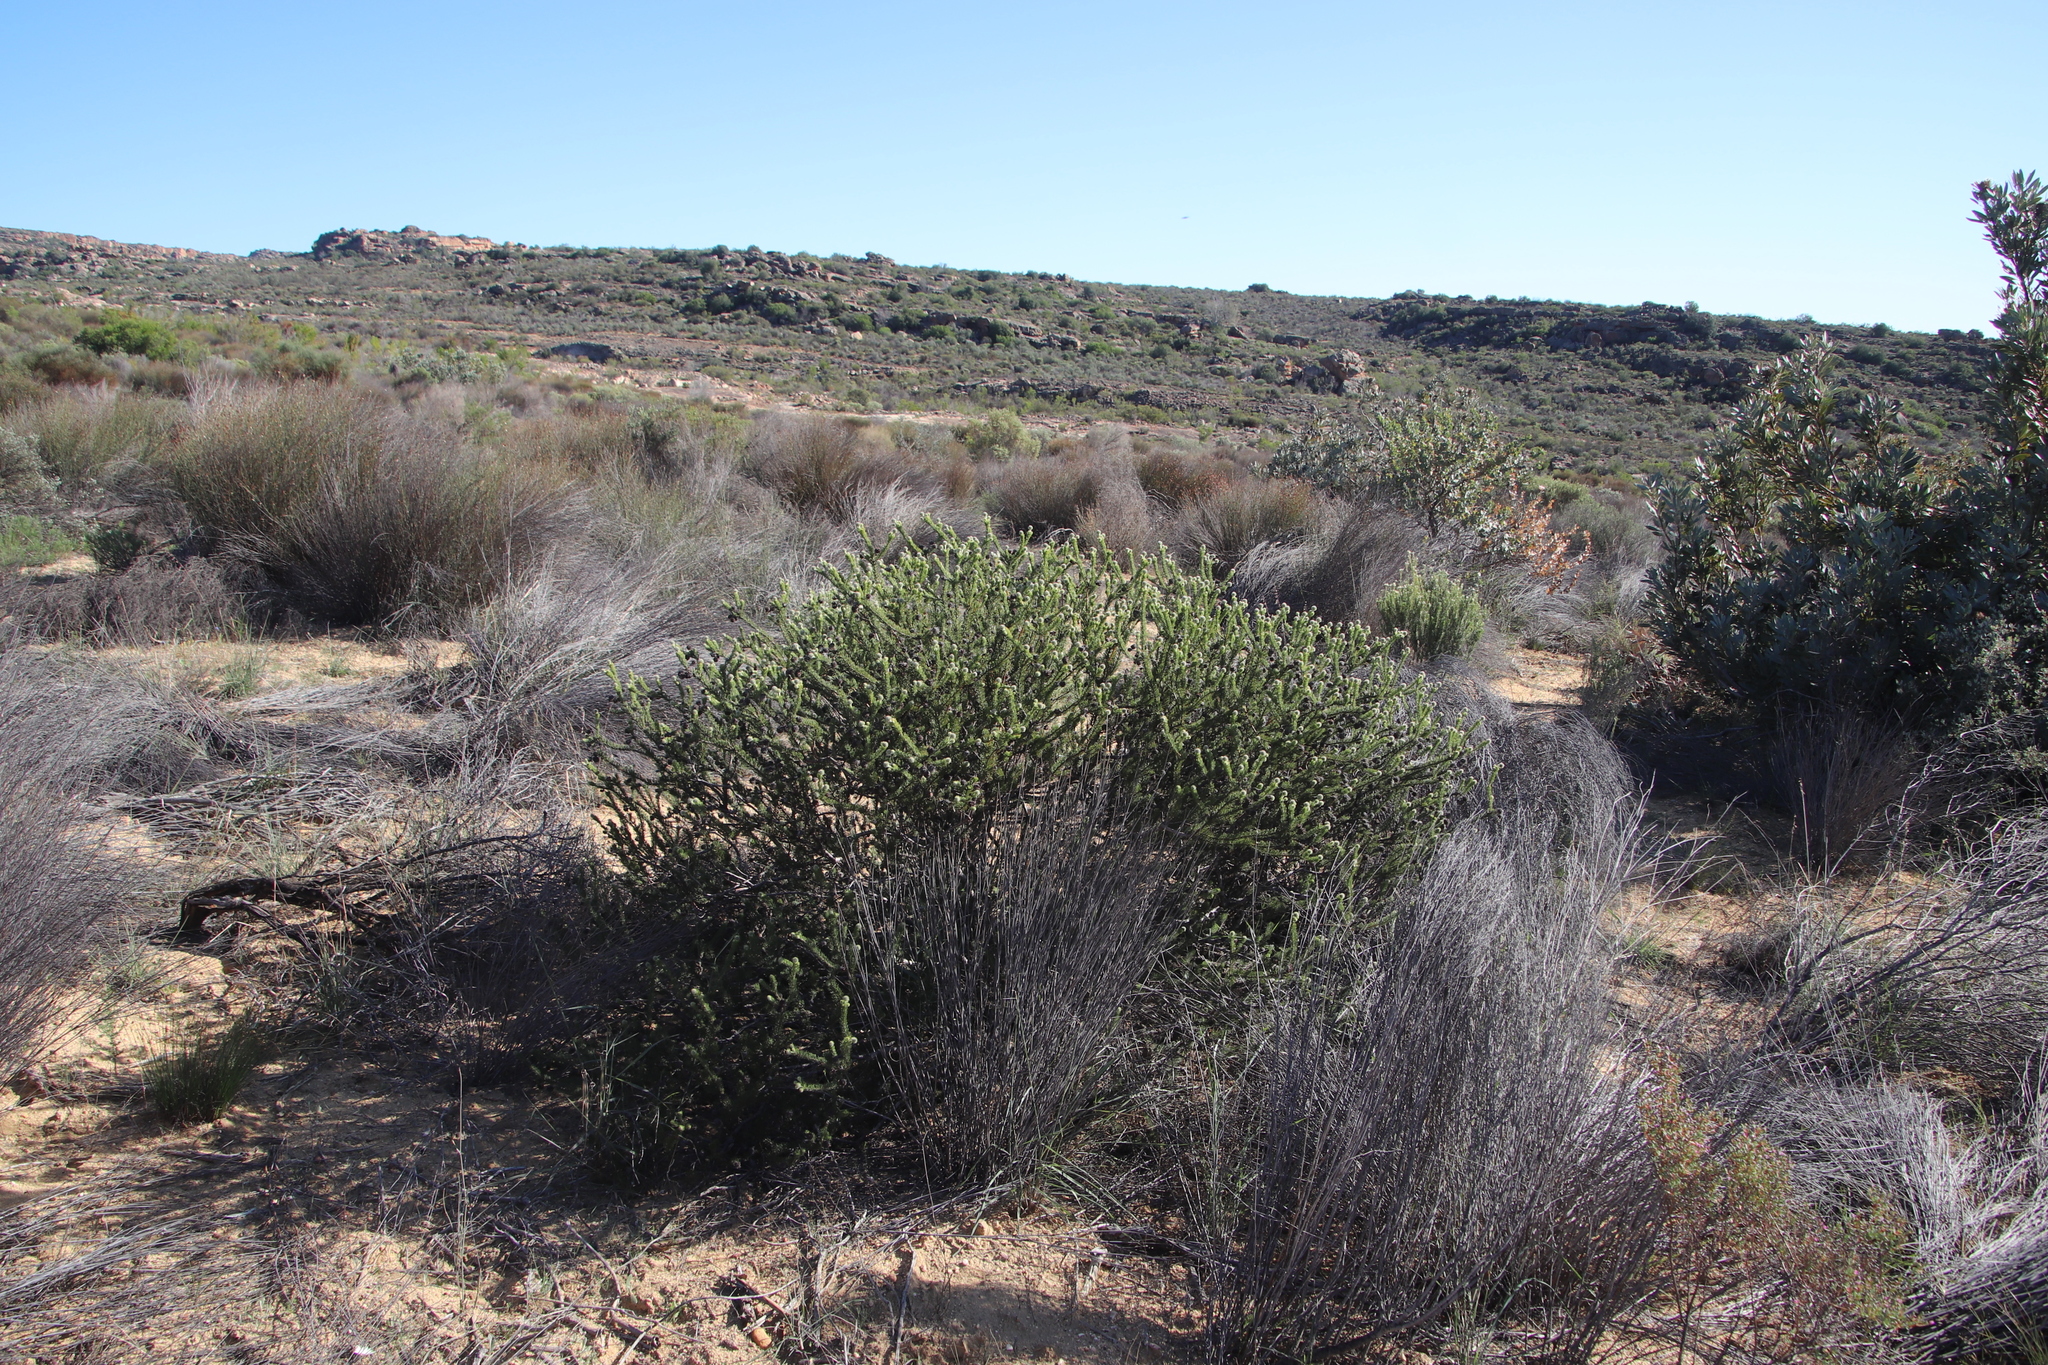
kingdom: Plantae
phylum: Tracheophyta
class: Magnoliopsida
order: Proteales
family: Proteaceae
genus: Serruria
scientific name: Serruria millefolia
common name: Millileaf spiderhead
